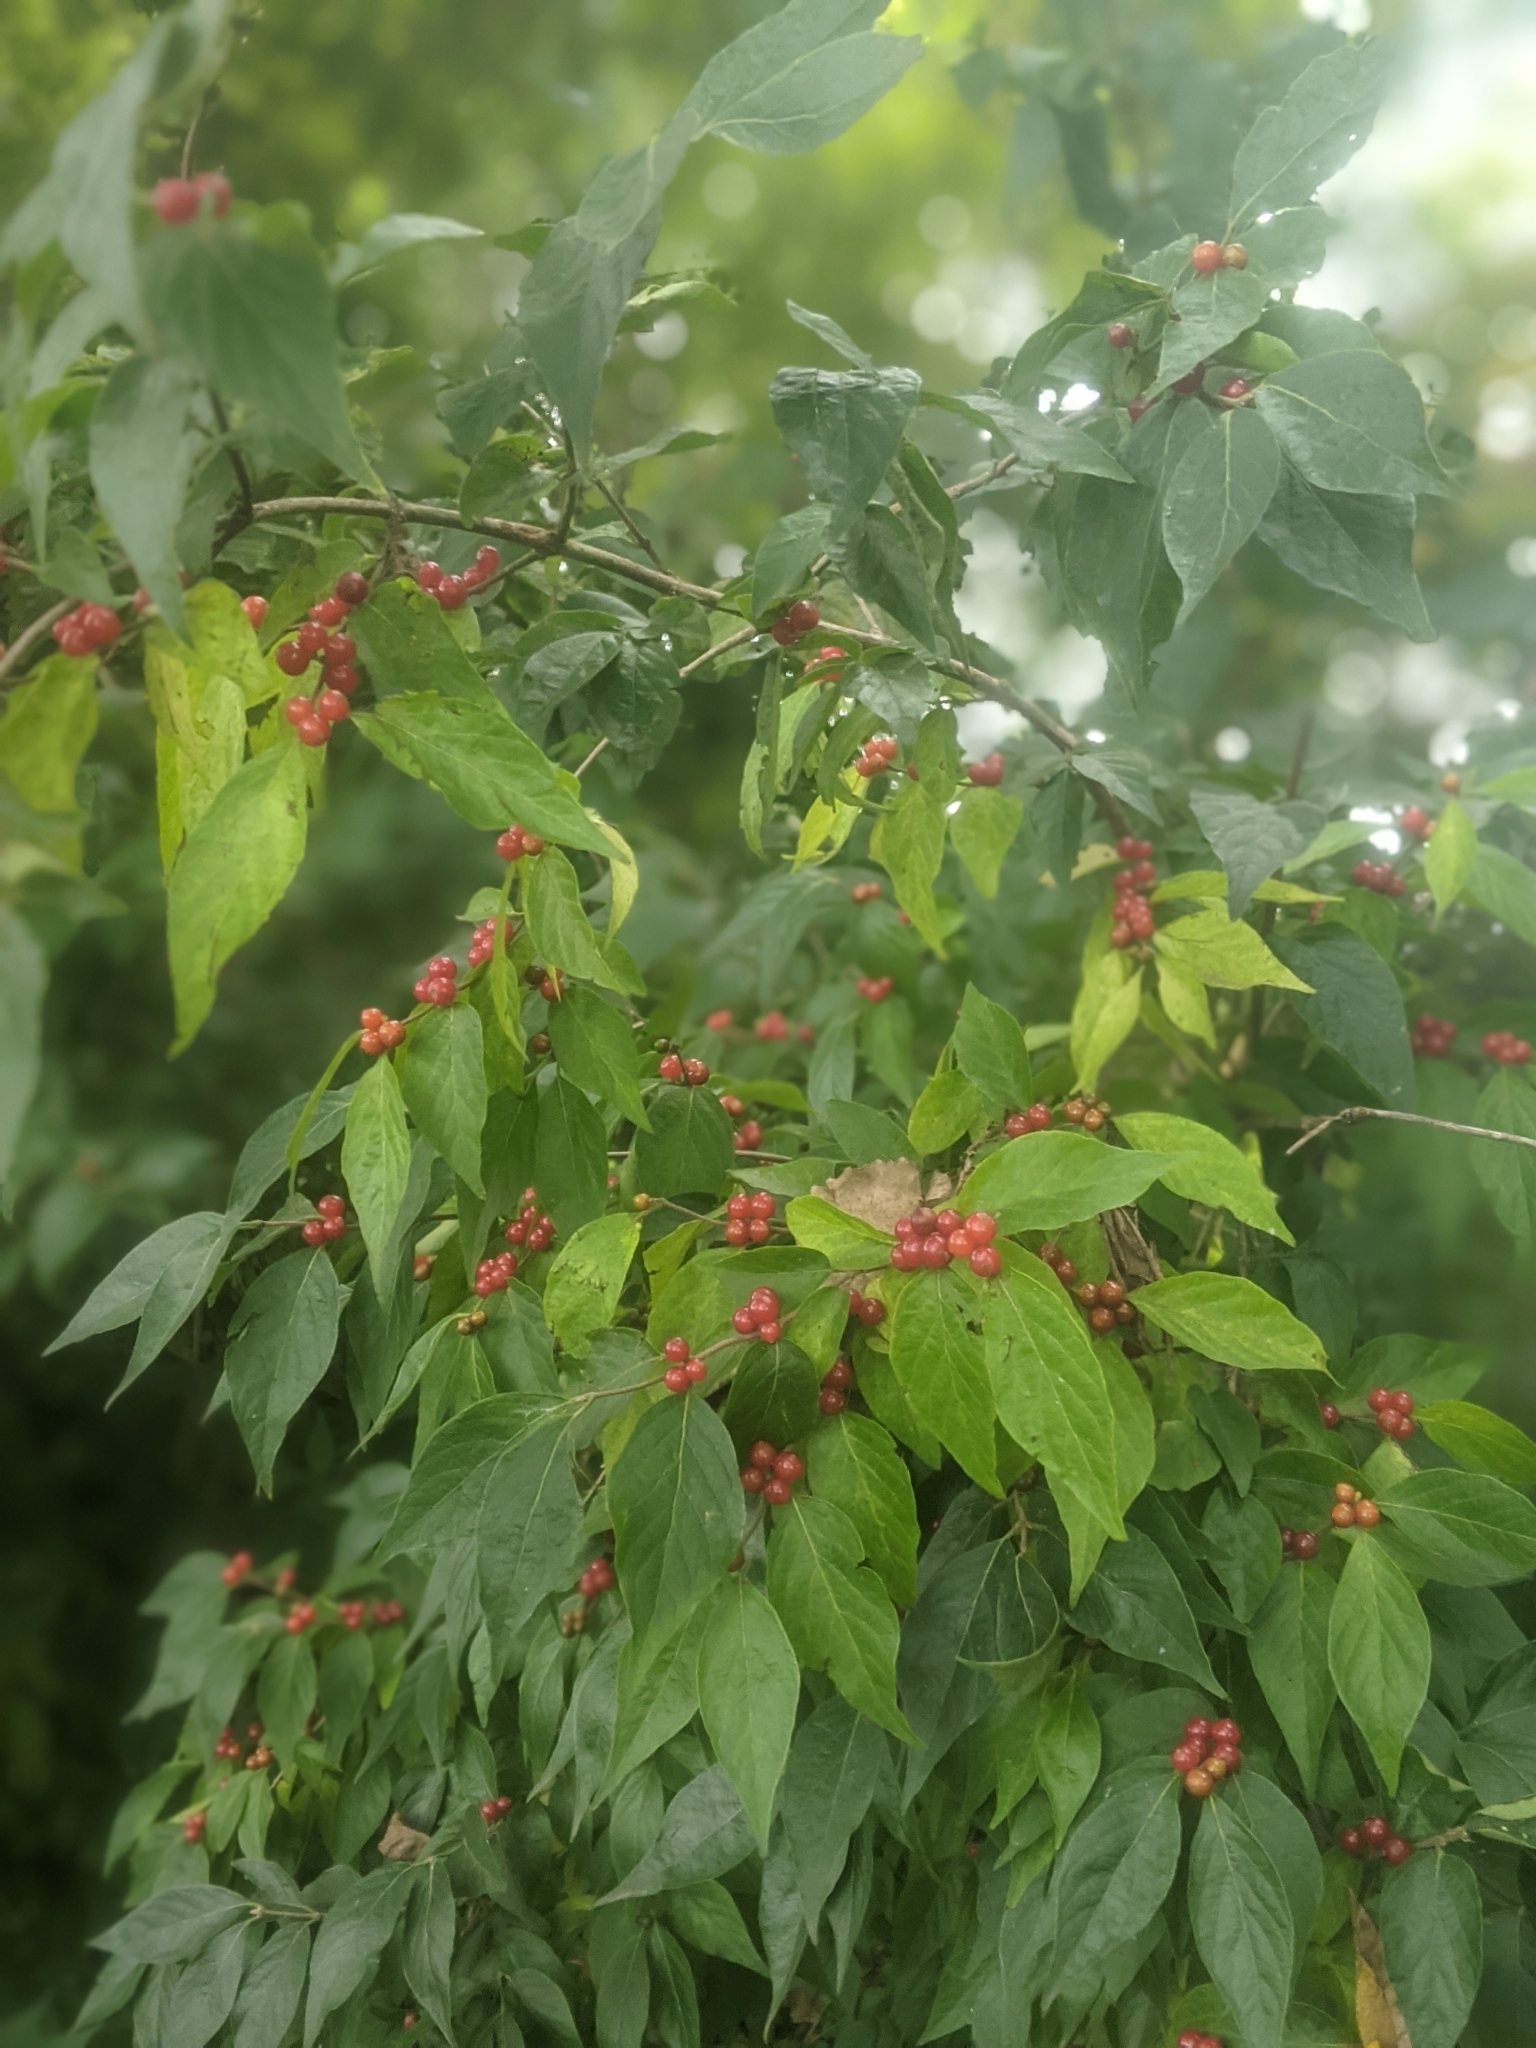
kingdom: Plantae
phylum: Tracheophyta
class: Magnoliopsida
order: Dipsacales
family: Caprifoliaceae
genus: Lonicera
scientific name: Lonicera maackii
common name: Amur honeysuckle
